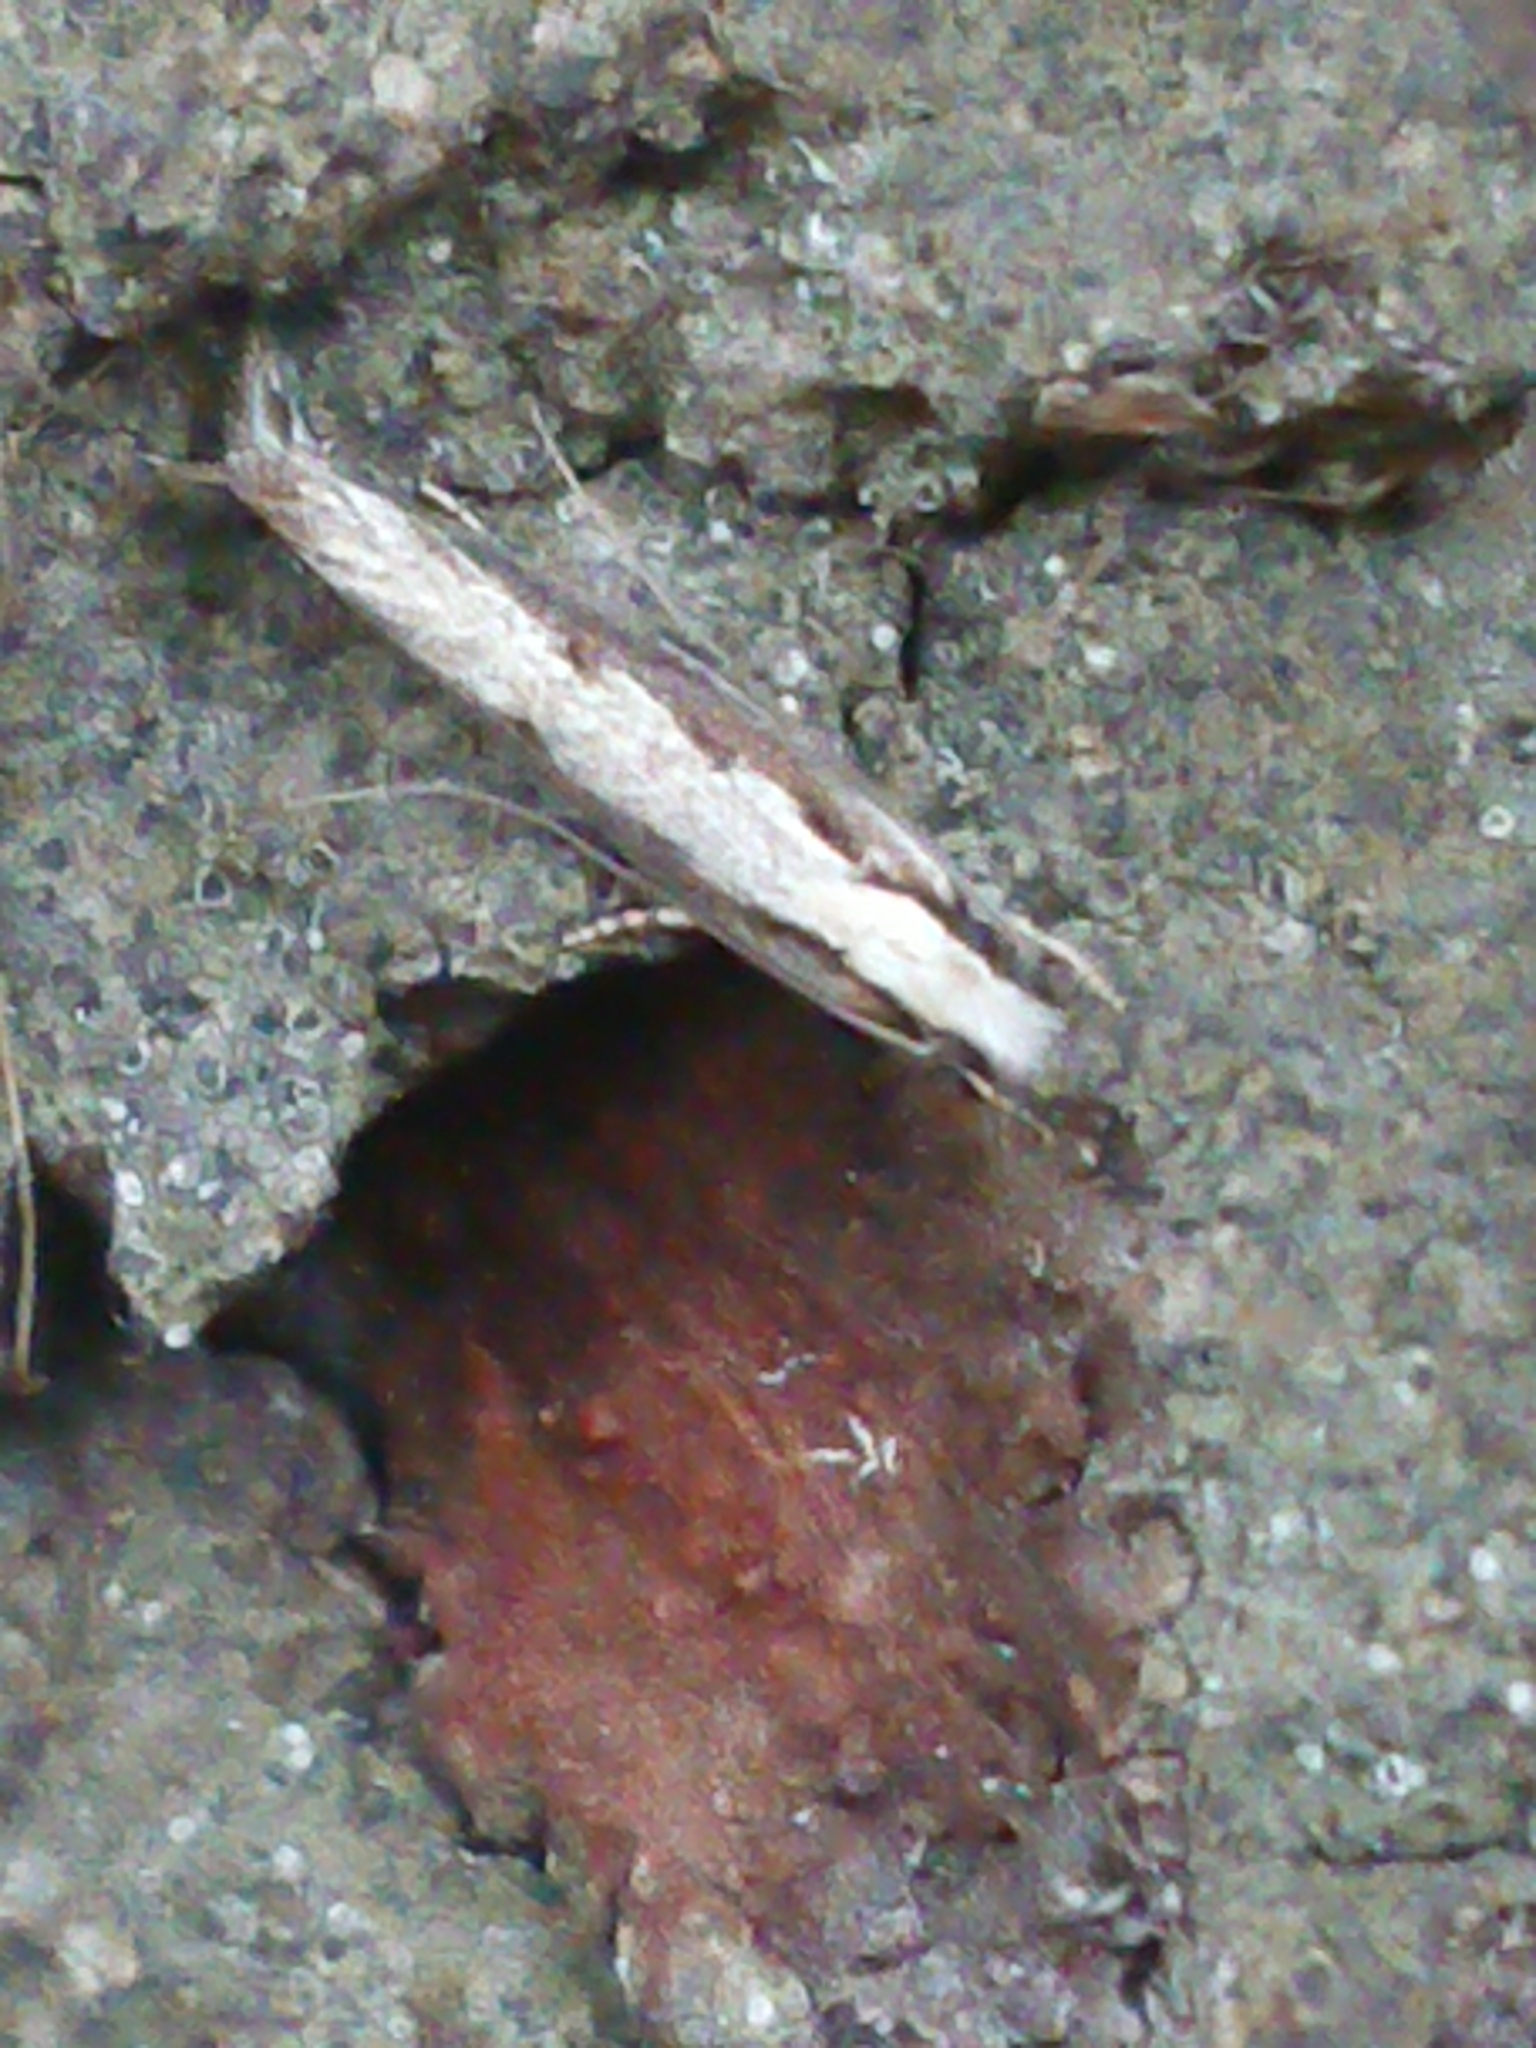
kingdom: Animalia
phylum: Arthropoda
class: Insecta
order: Lepidoptera
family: Tineidae
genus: Erechthias
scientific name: Erechthias fulguritella
